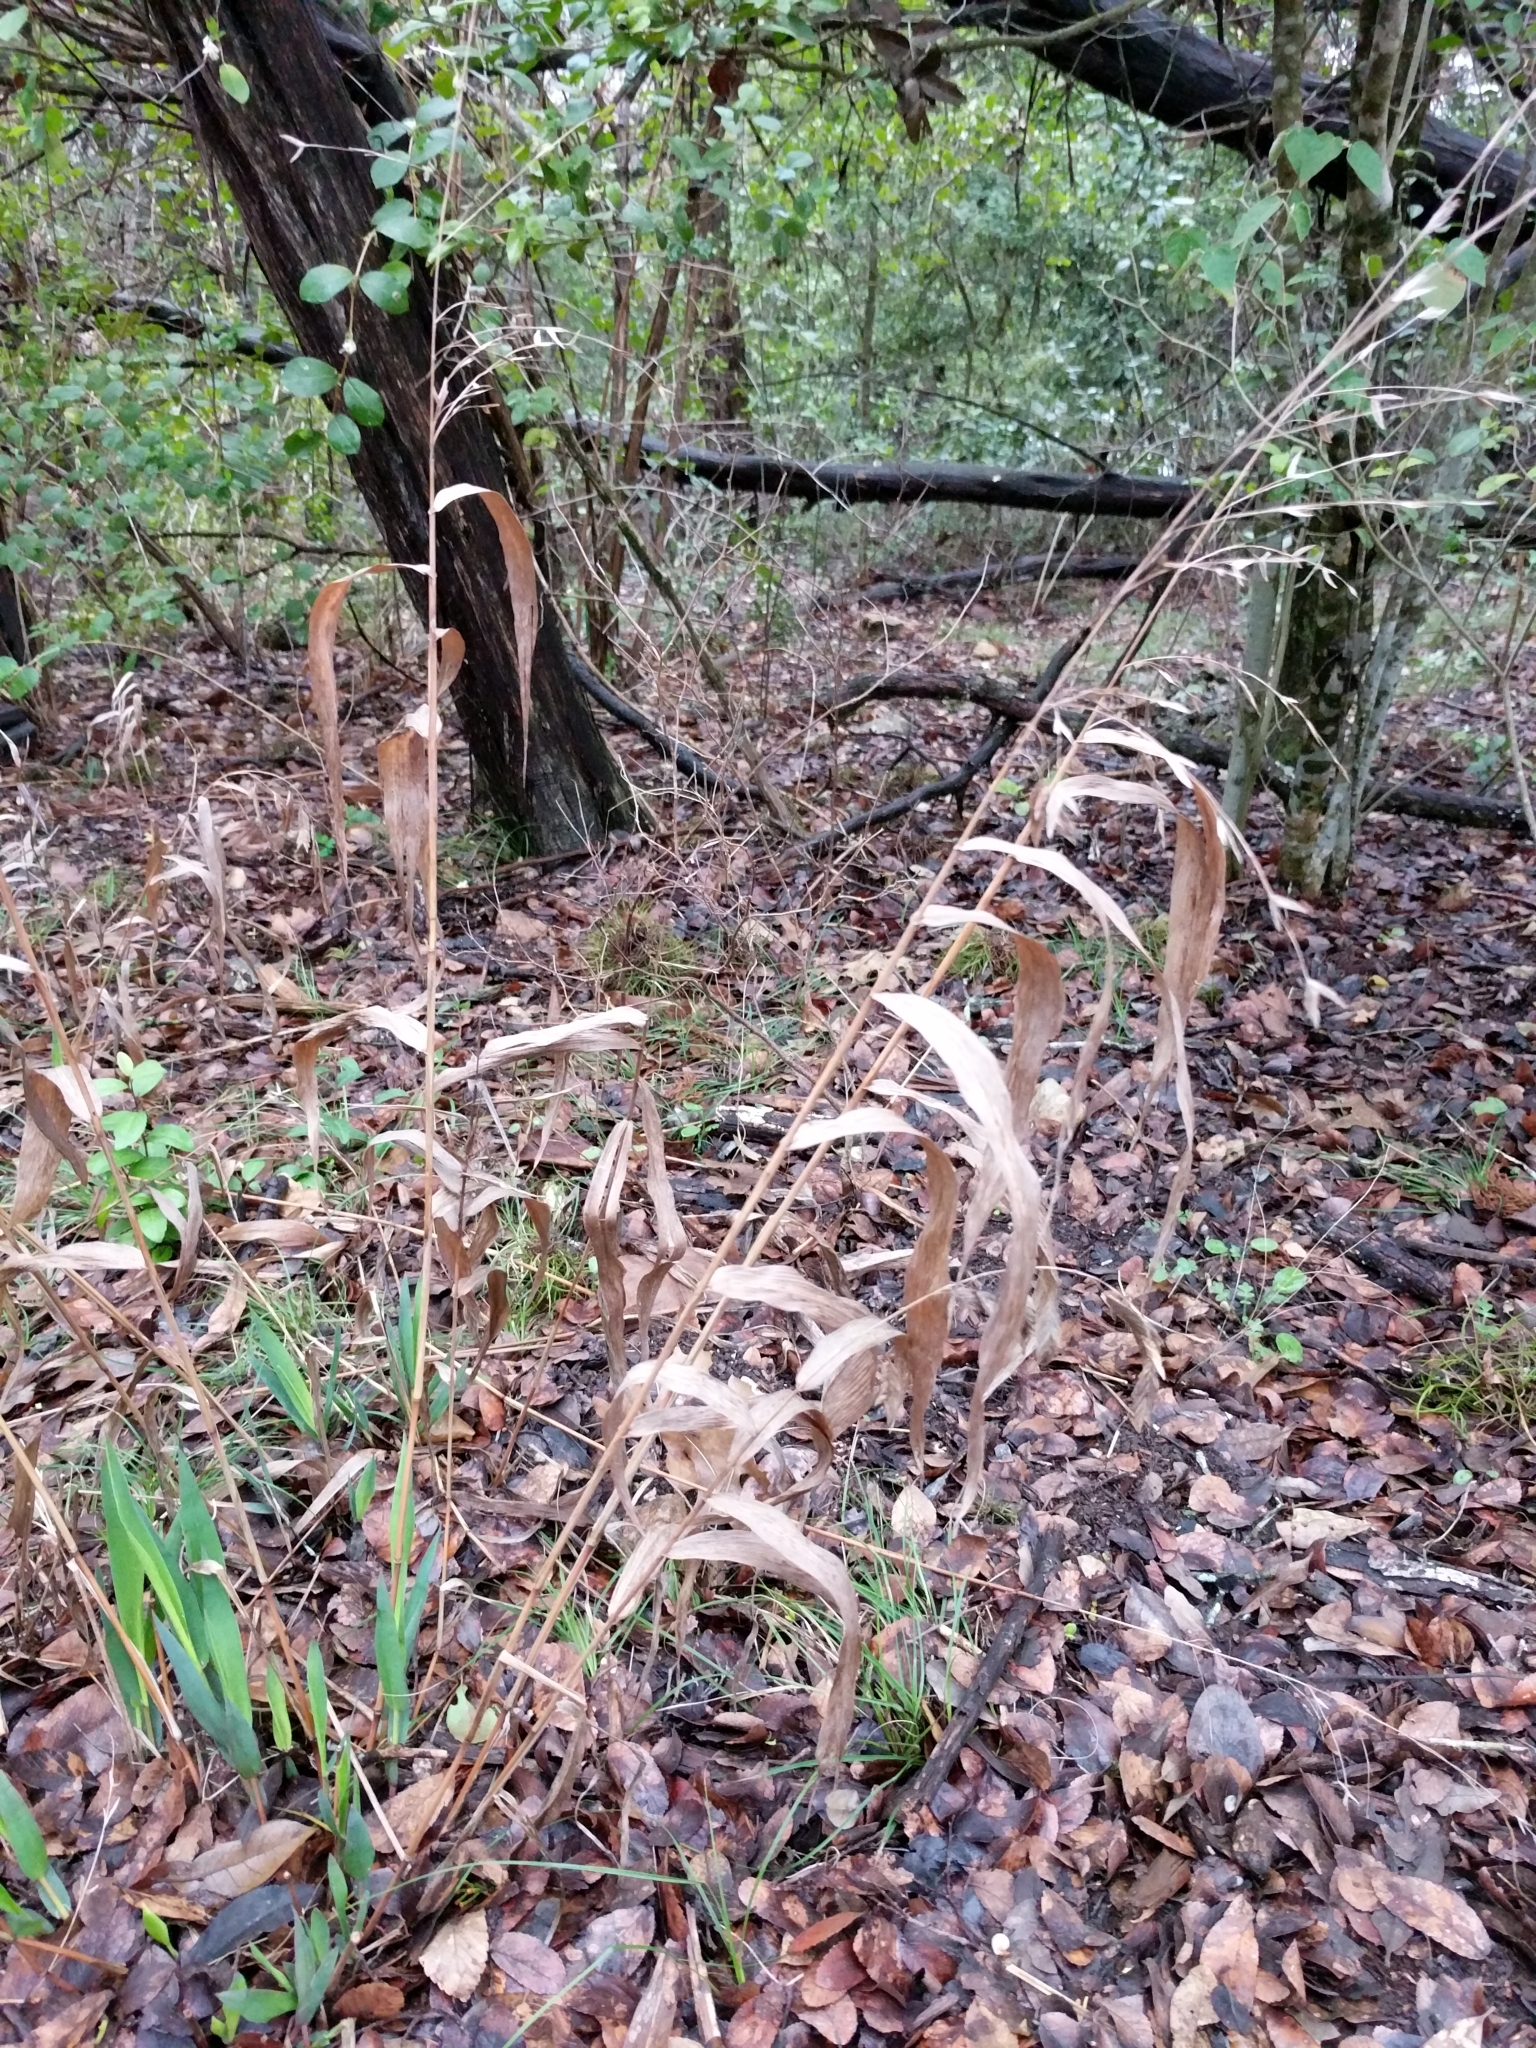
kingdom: Plantae
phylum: Tracheophyta
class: Liliopsida
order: Poales
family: Poaceae
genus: Chasmanthium
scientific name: Chasmanthium latifolium
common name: Broad-leaved chasmanthium
